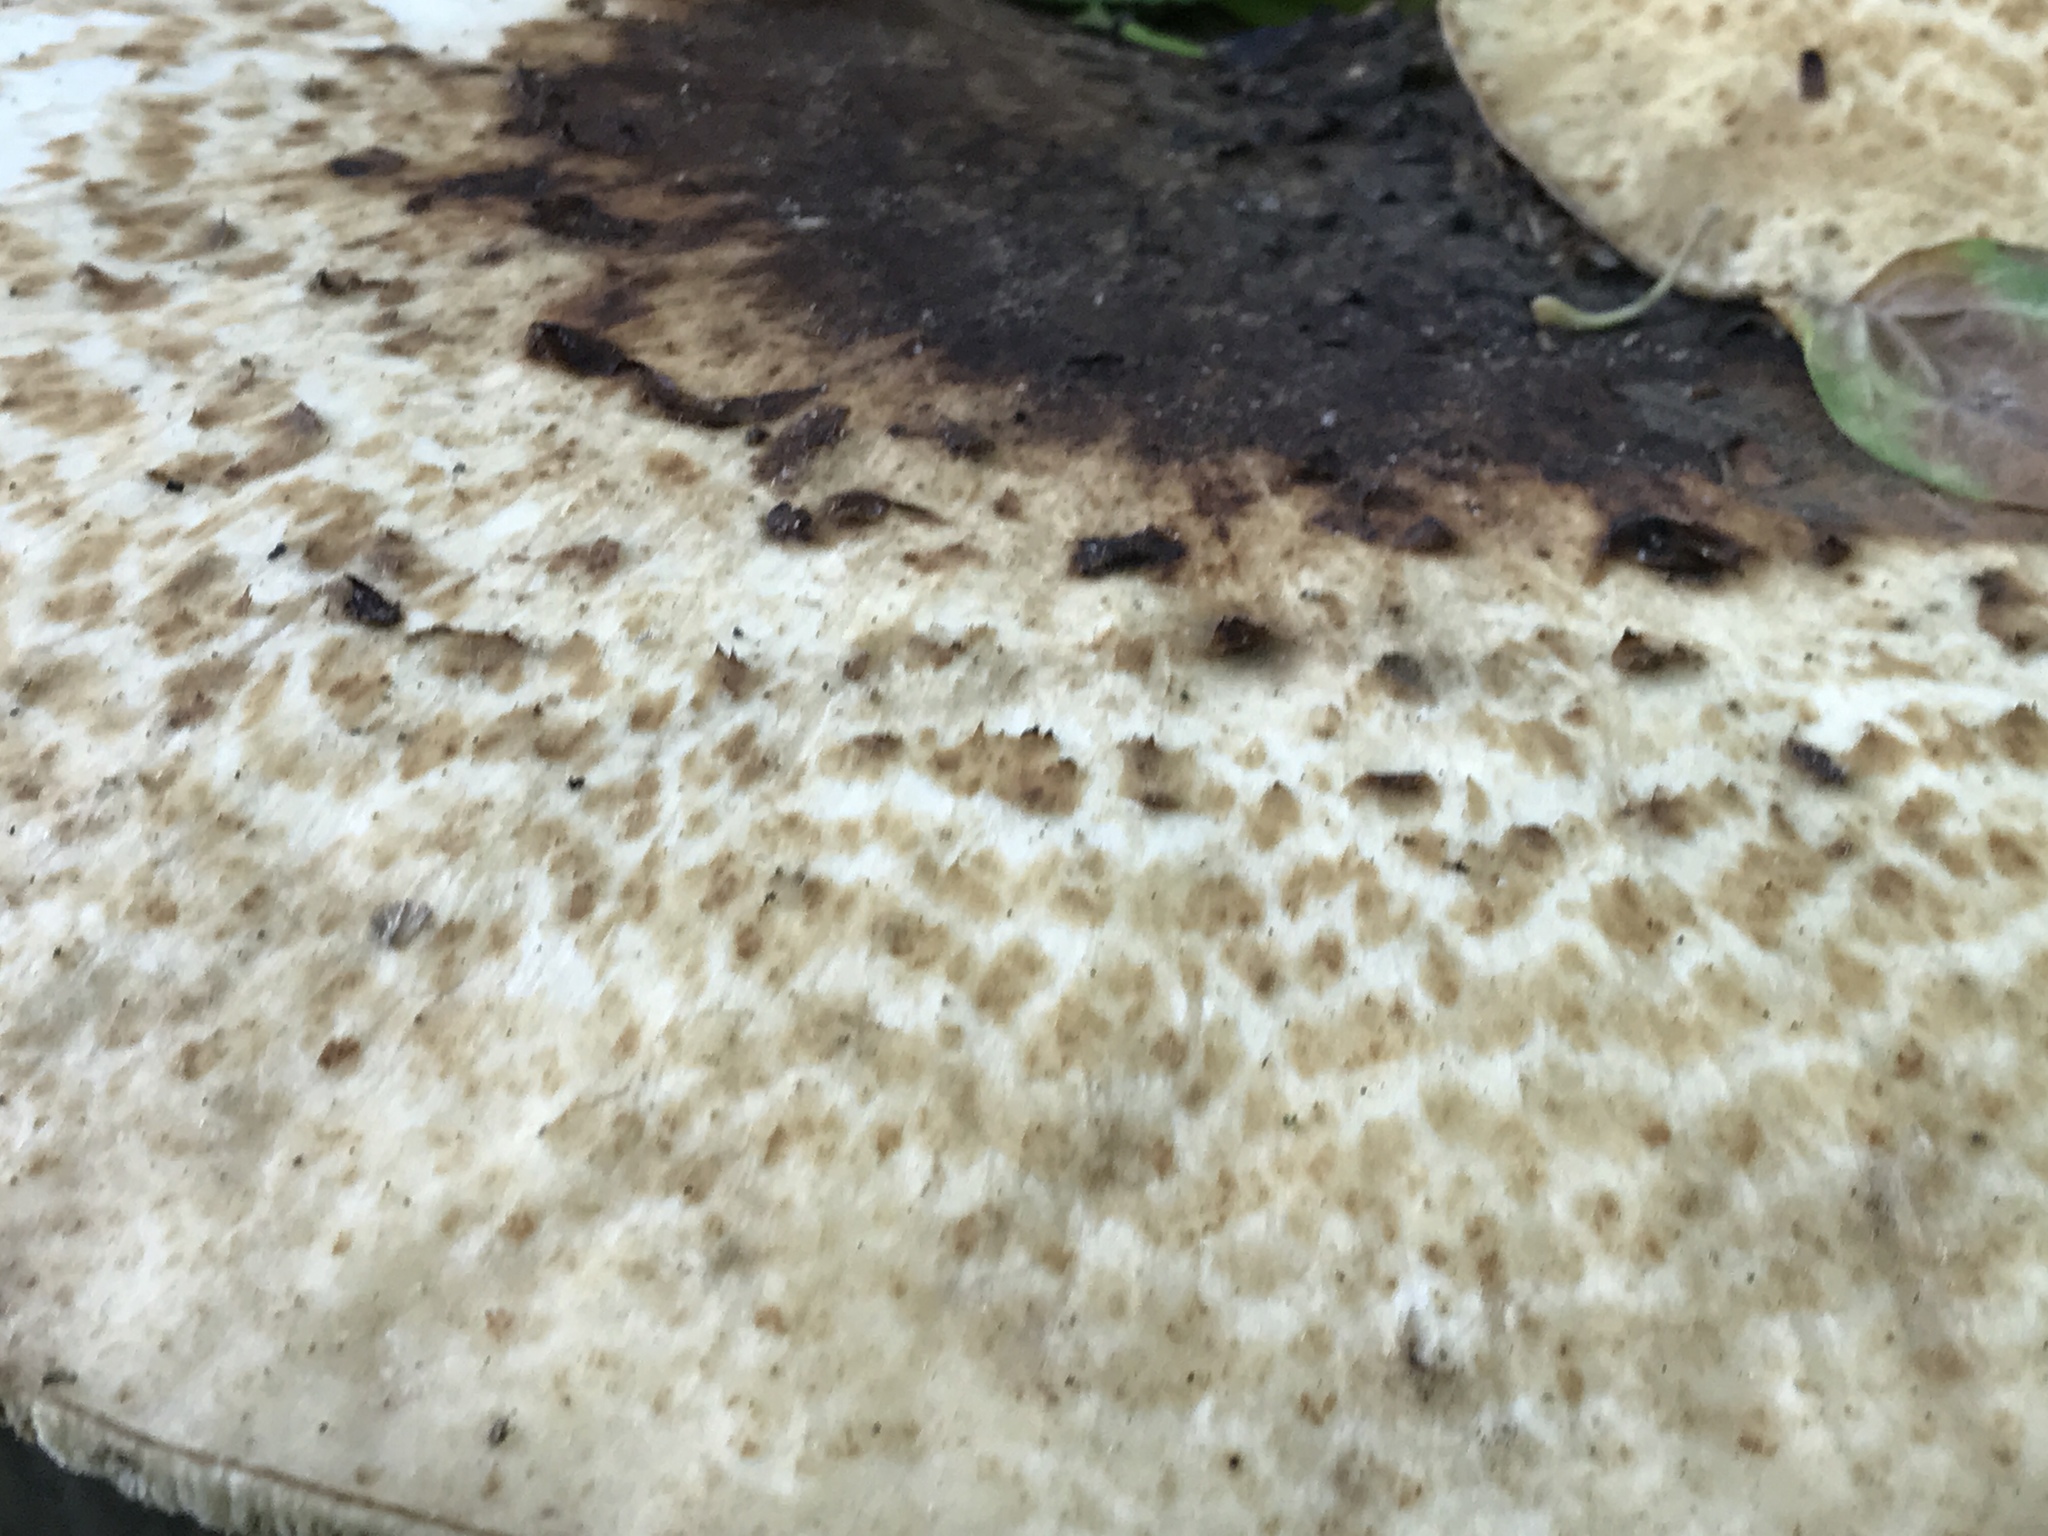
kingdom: Fungi
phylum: Basidiomycota
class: Agaricomycetes
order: Polyporales
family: Polyporaceae
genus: Cerioporus
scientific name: Cerioporus squamosus
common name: Dryad's saddle
